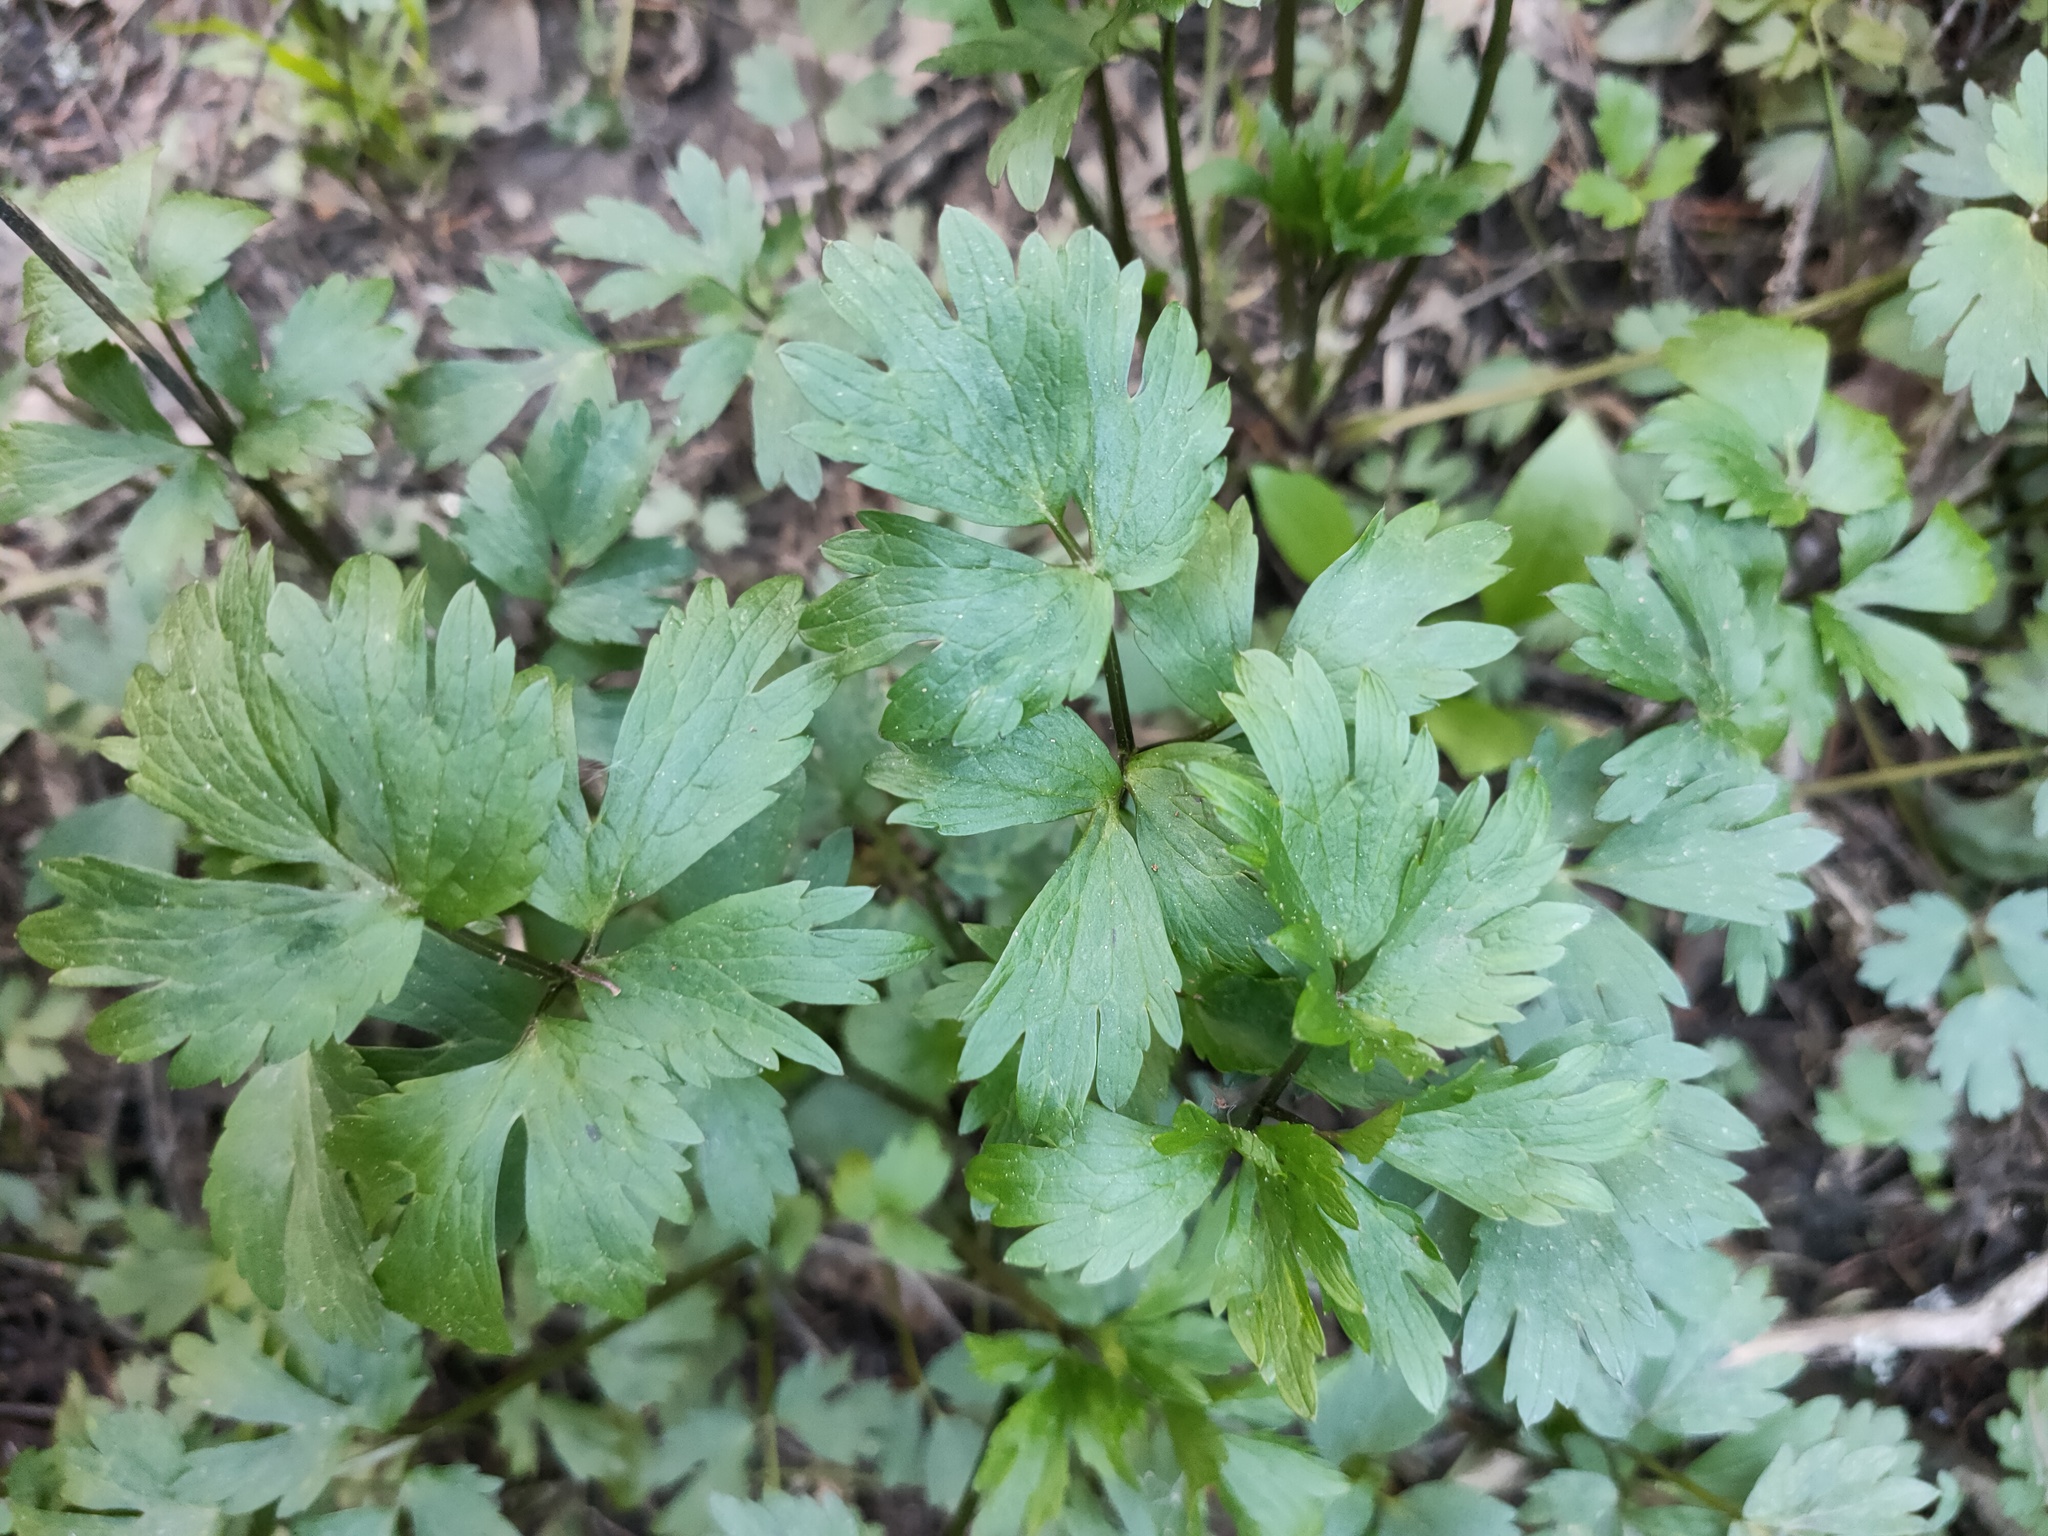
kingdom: Plantae
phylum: Tracheophyta
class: Magnoliopsida
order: Ranunculales
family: Ranunculaceae
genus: Ranunculus
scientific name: Ranunculus repens
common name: Creeping buttercup
